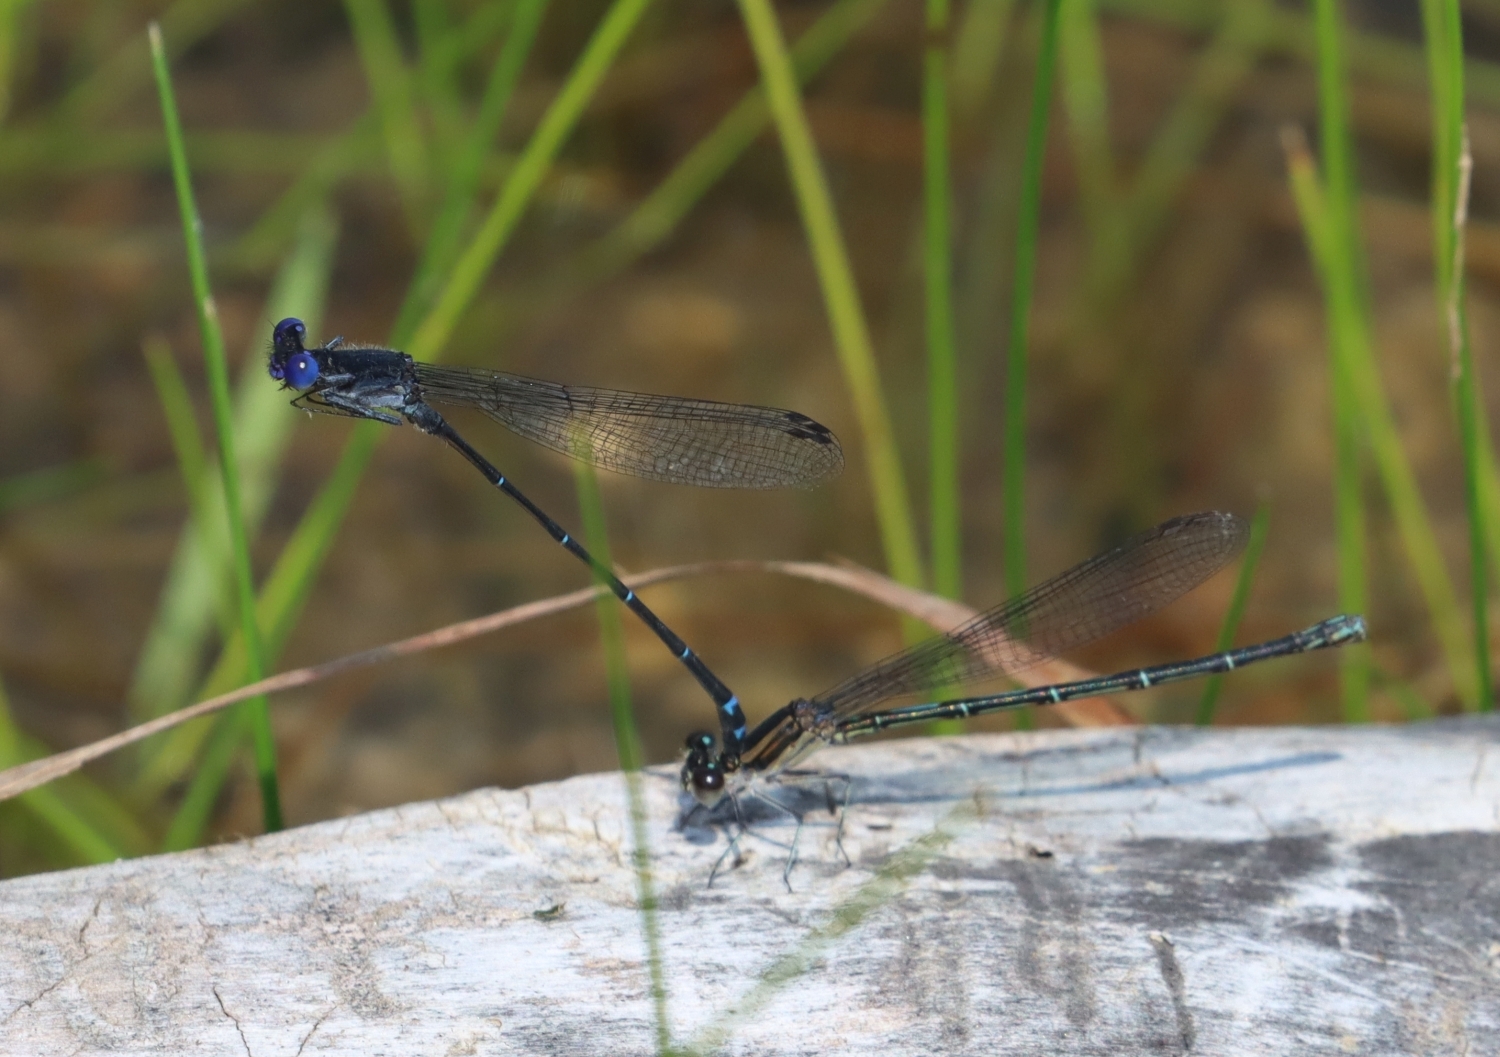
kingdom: Animalia
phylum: Arthropoda
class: Insecta
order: Odonata
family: Coenagrionidae
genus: Argia
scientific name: Argia translata
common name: Dusky dancer
